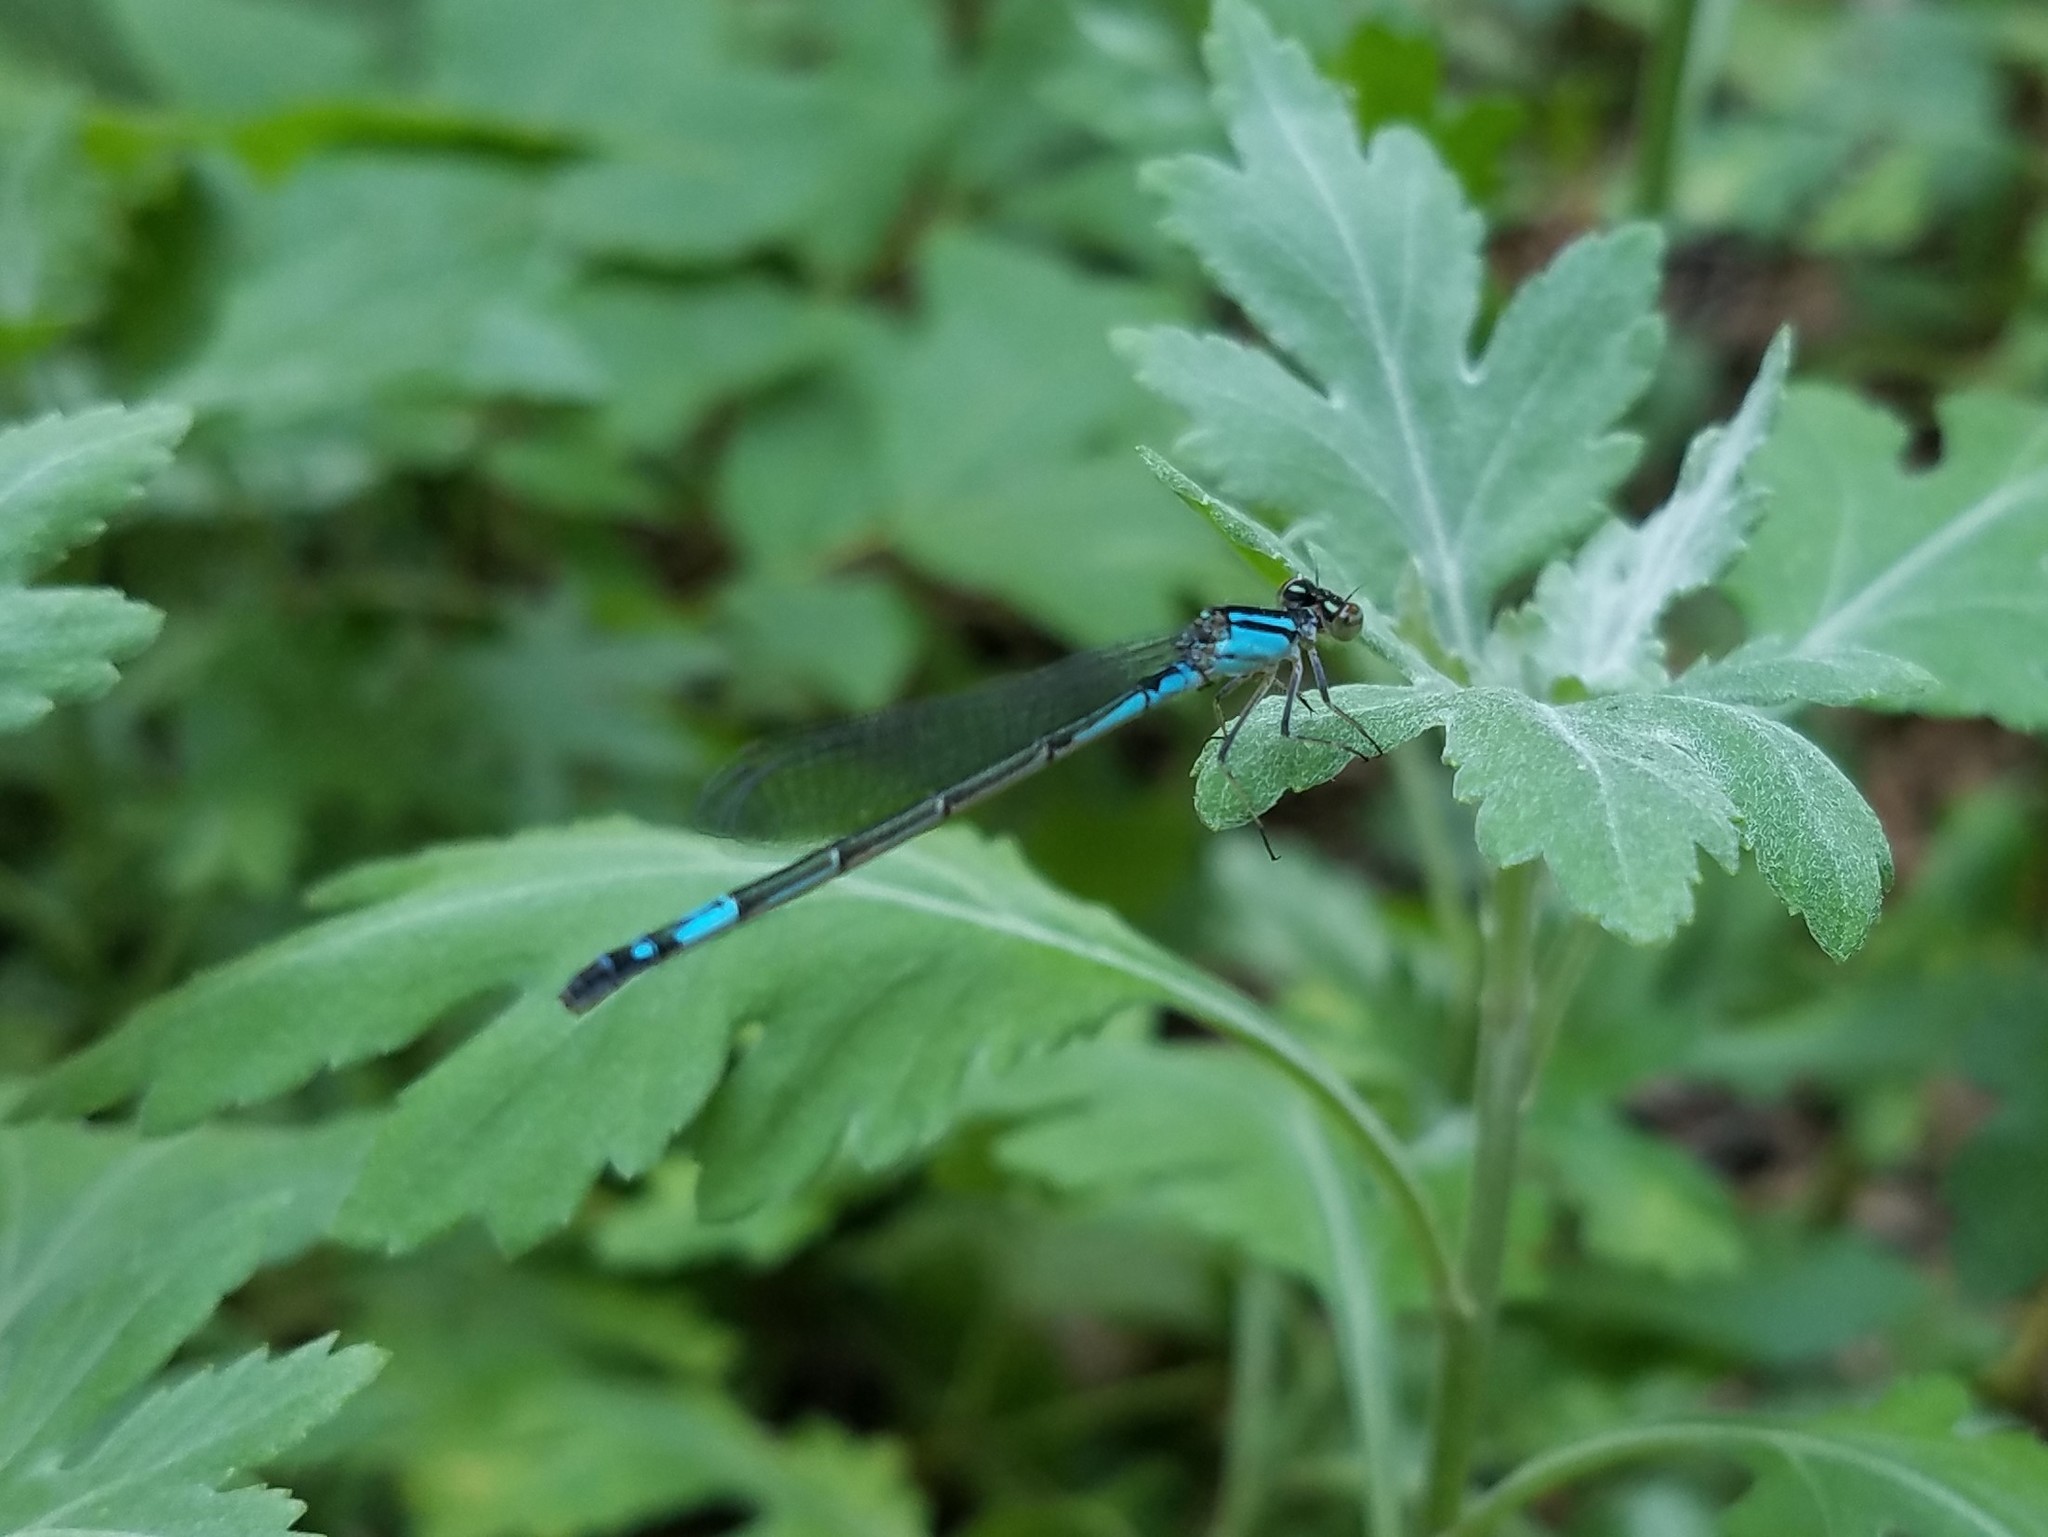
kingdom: Animalia
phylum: Arthropoda
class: Insecta
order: Odonata
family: Coenagrionidae
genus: Enallagma
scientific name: Enallagma aspersum
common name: Azure bluet
